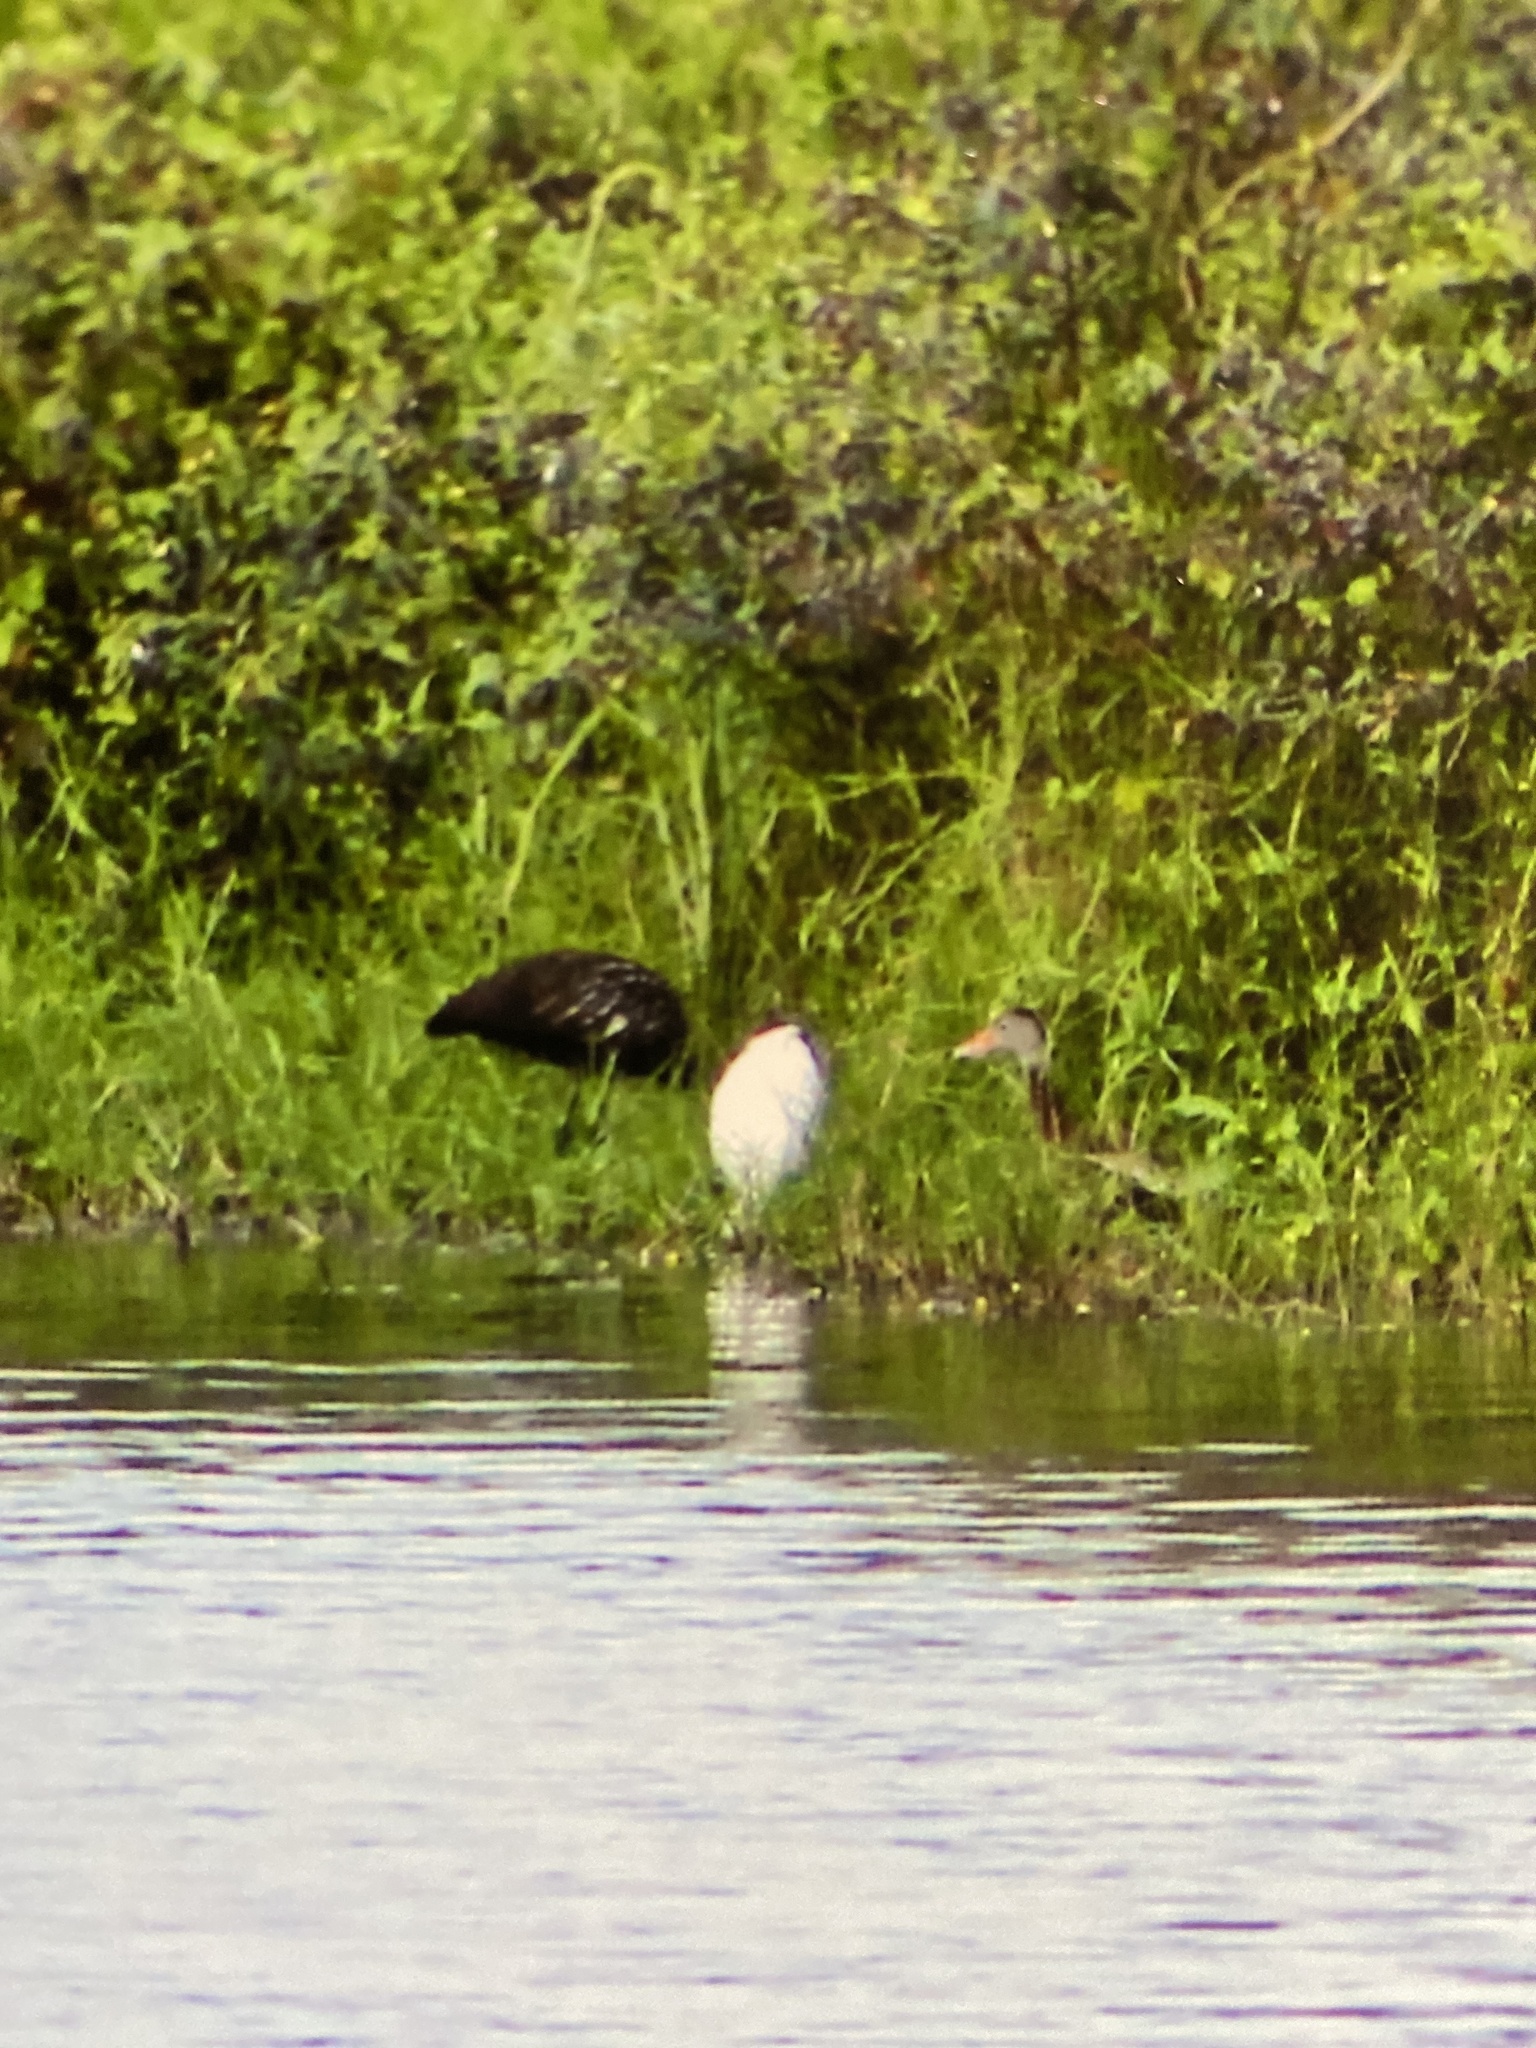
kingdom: Animalia
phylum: Chordata
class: Aves
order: Pelecaniformes
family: Threskiornithidae
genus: Eudocimus
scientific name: Eudocimus albus
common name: White ibis
